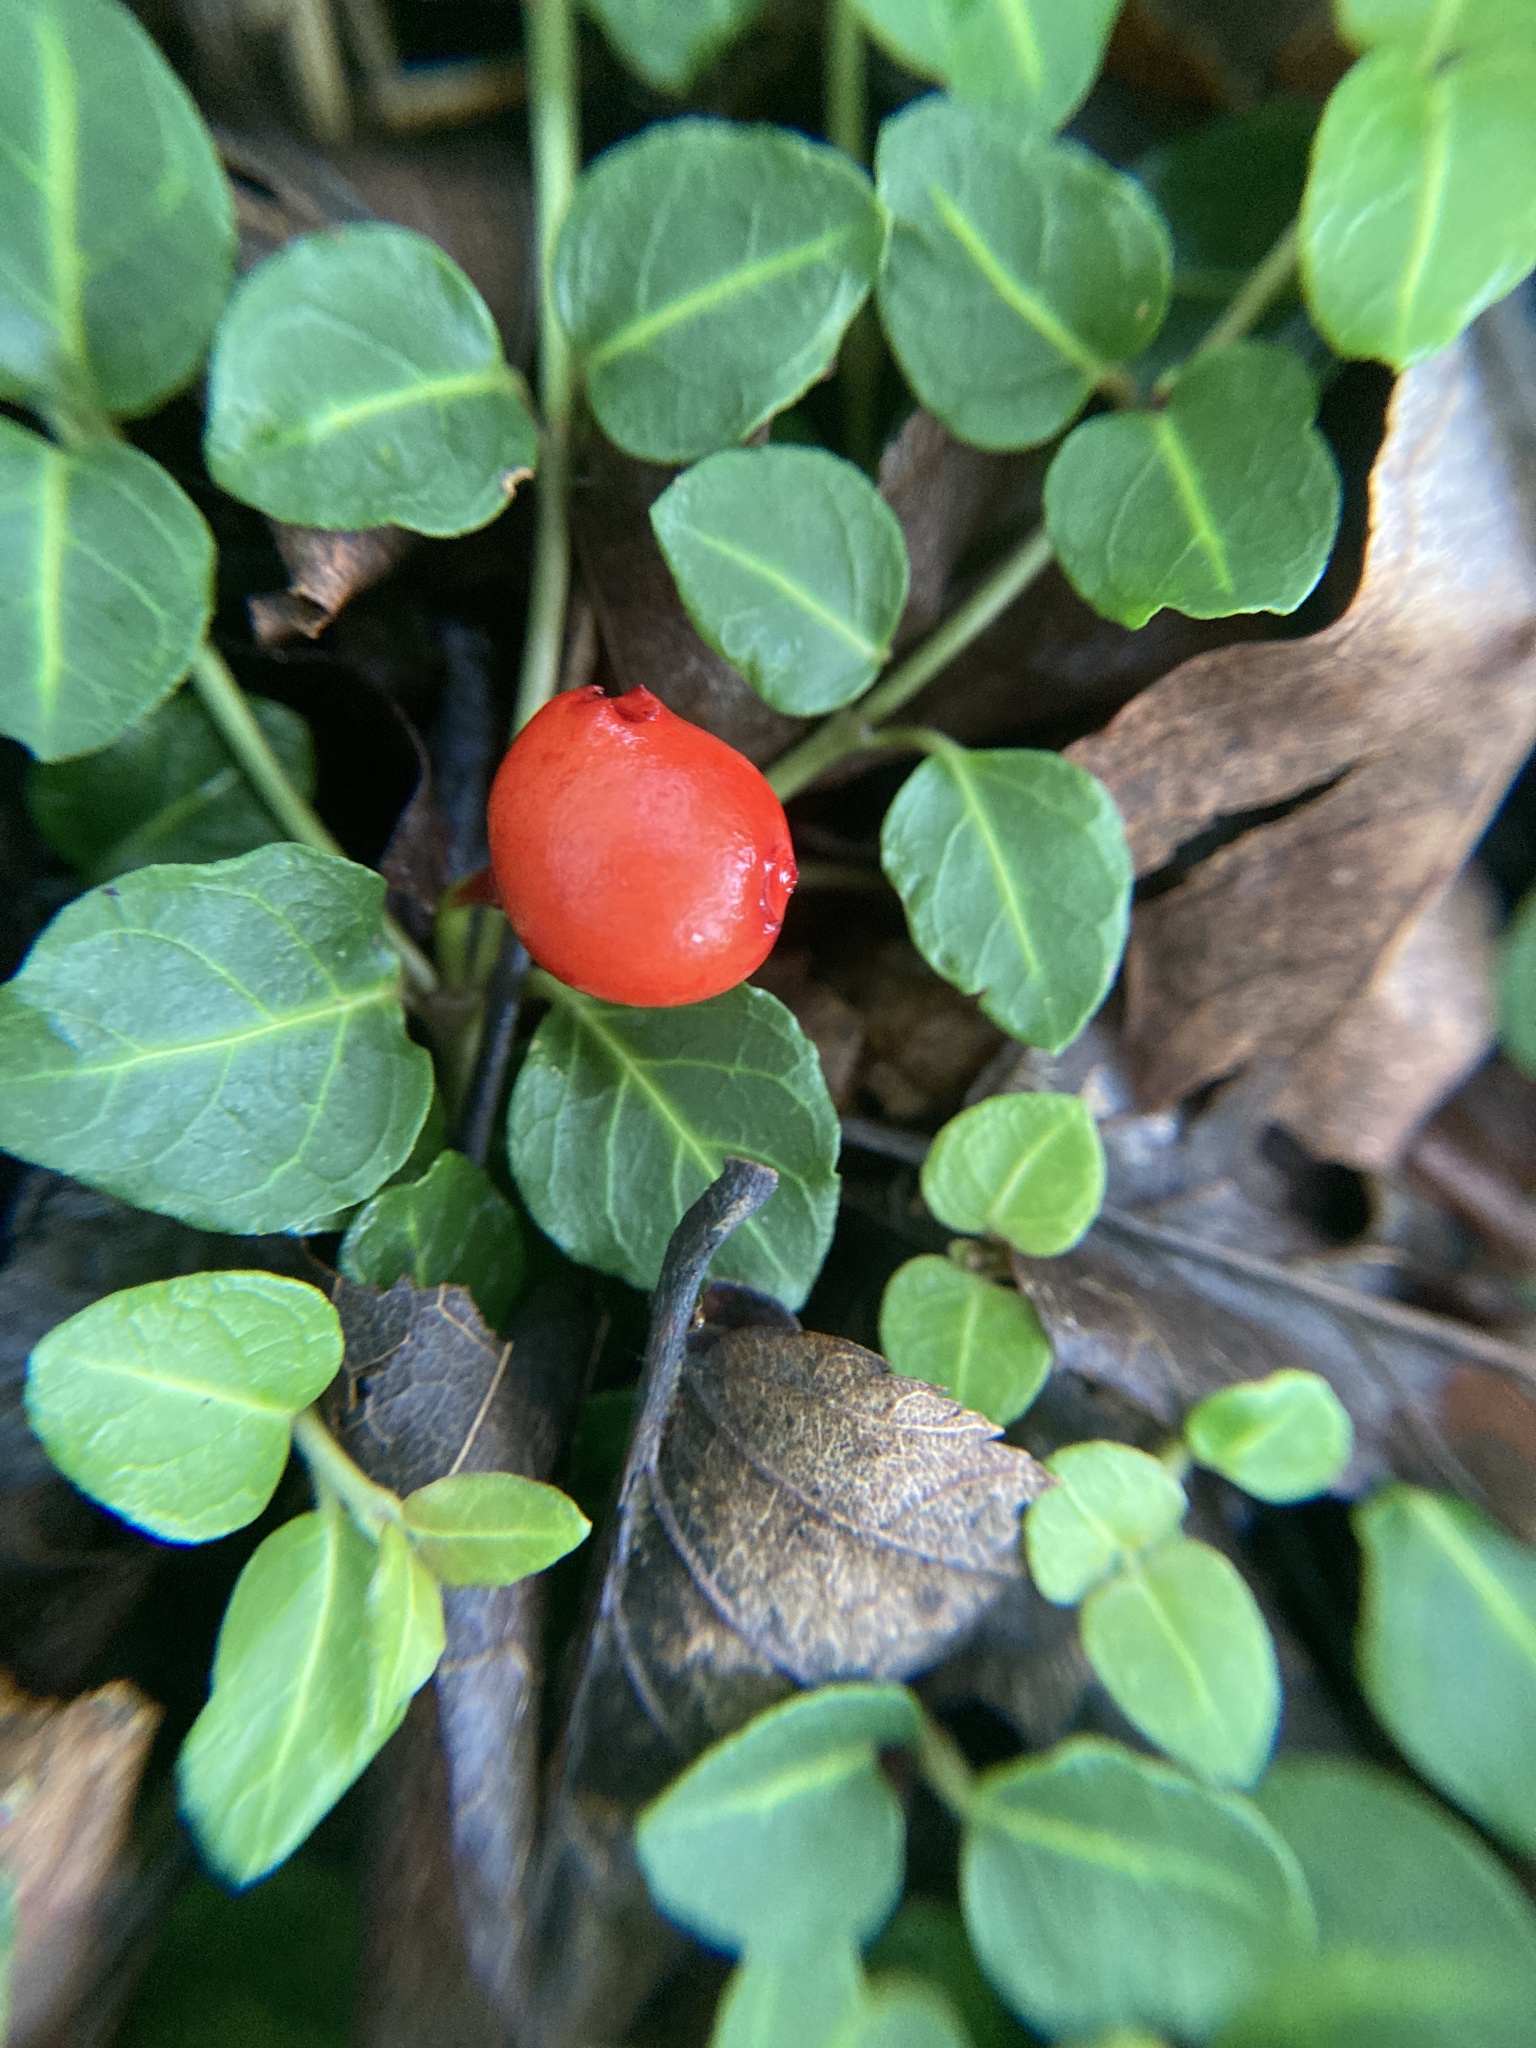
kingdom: Plantae
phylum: Tracheophyta
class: Magnoliopsida
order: Gentianales
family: Rubiaceae
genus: Mitchella
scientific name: Mitchella repens
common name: Partridge-berry
